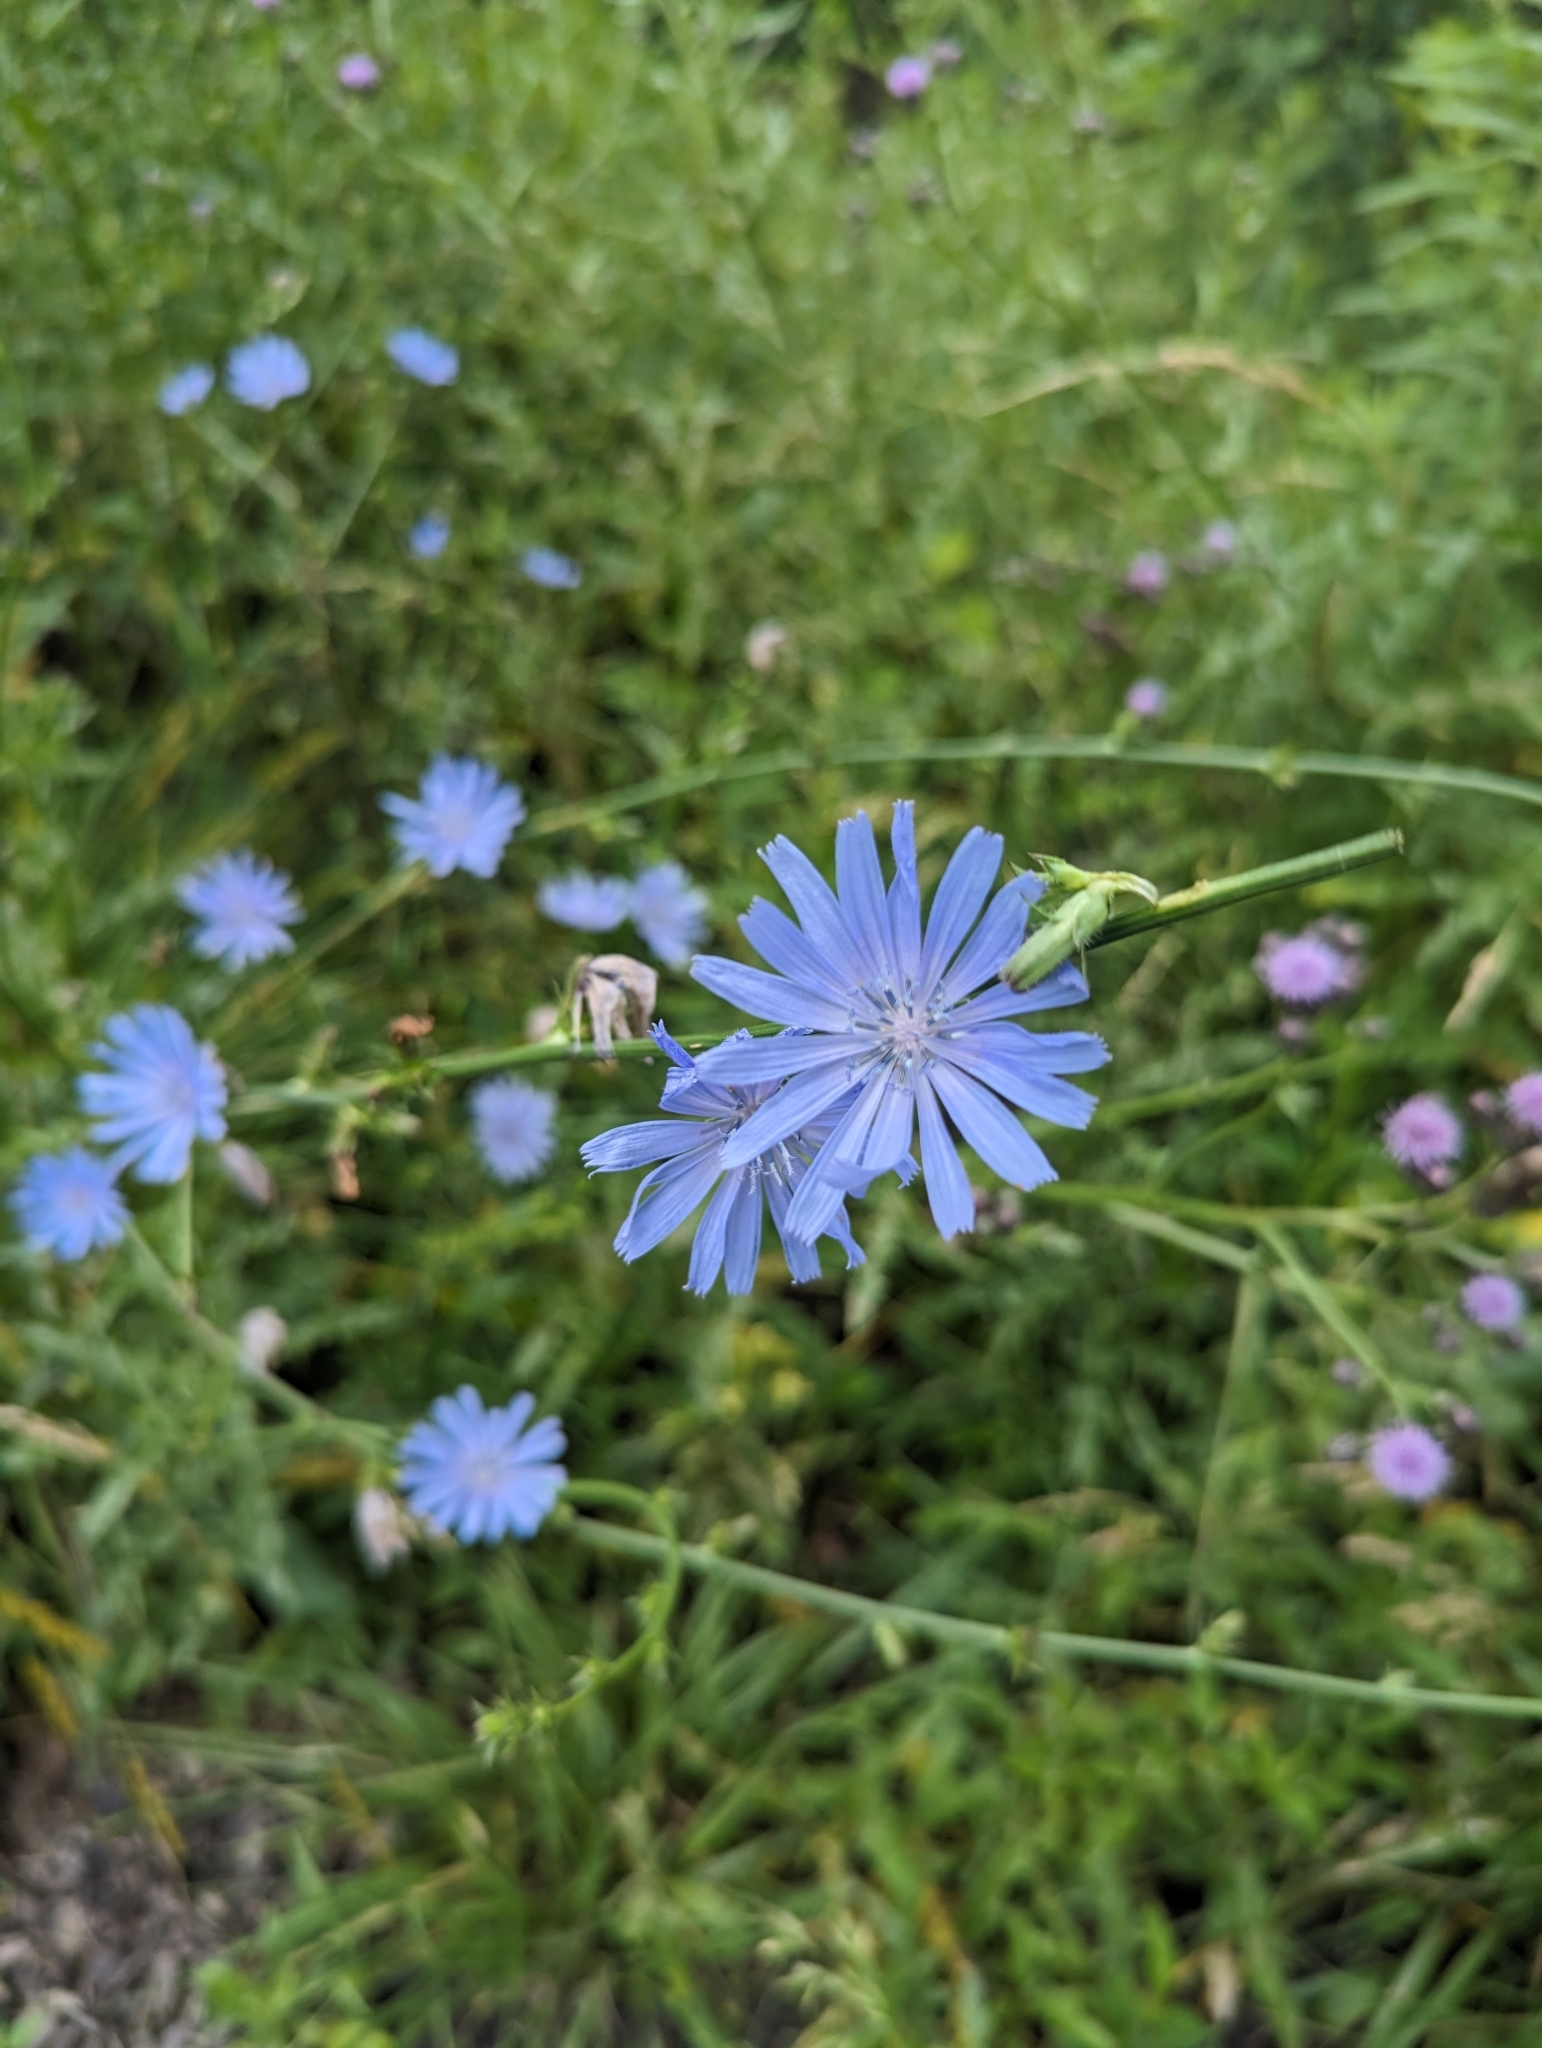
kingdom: Plantae
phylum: Tracheophyta
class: Magnoliopsida
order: Asterales
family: Asteraceae
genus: Cichorium
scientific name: Cichorium intybus
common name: Chicory
